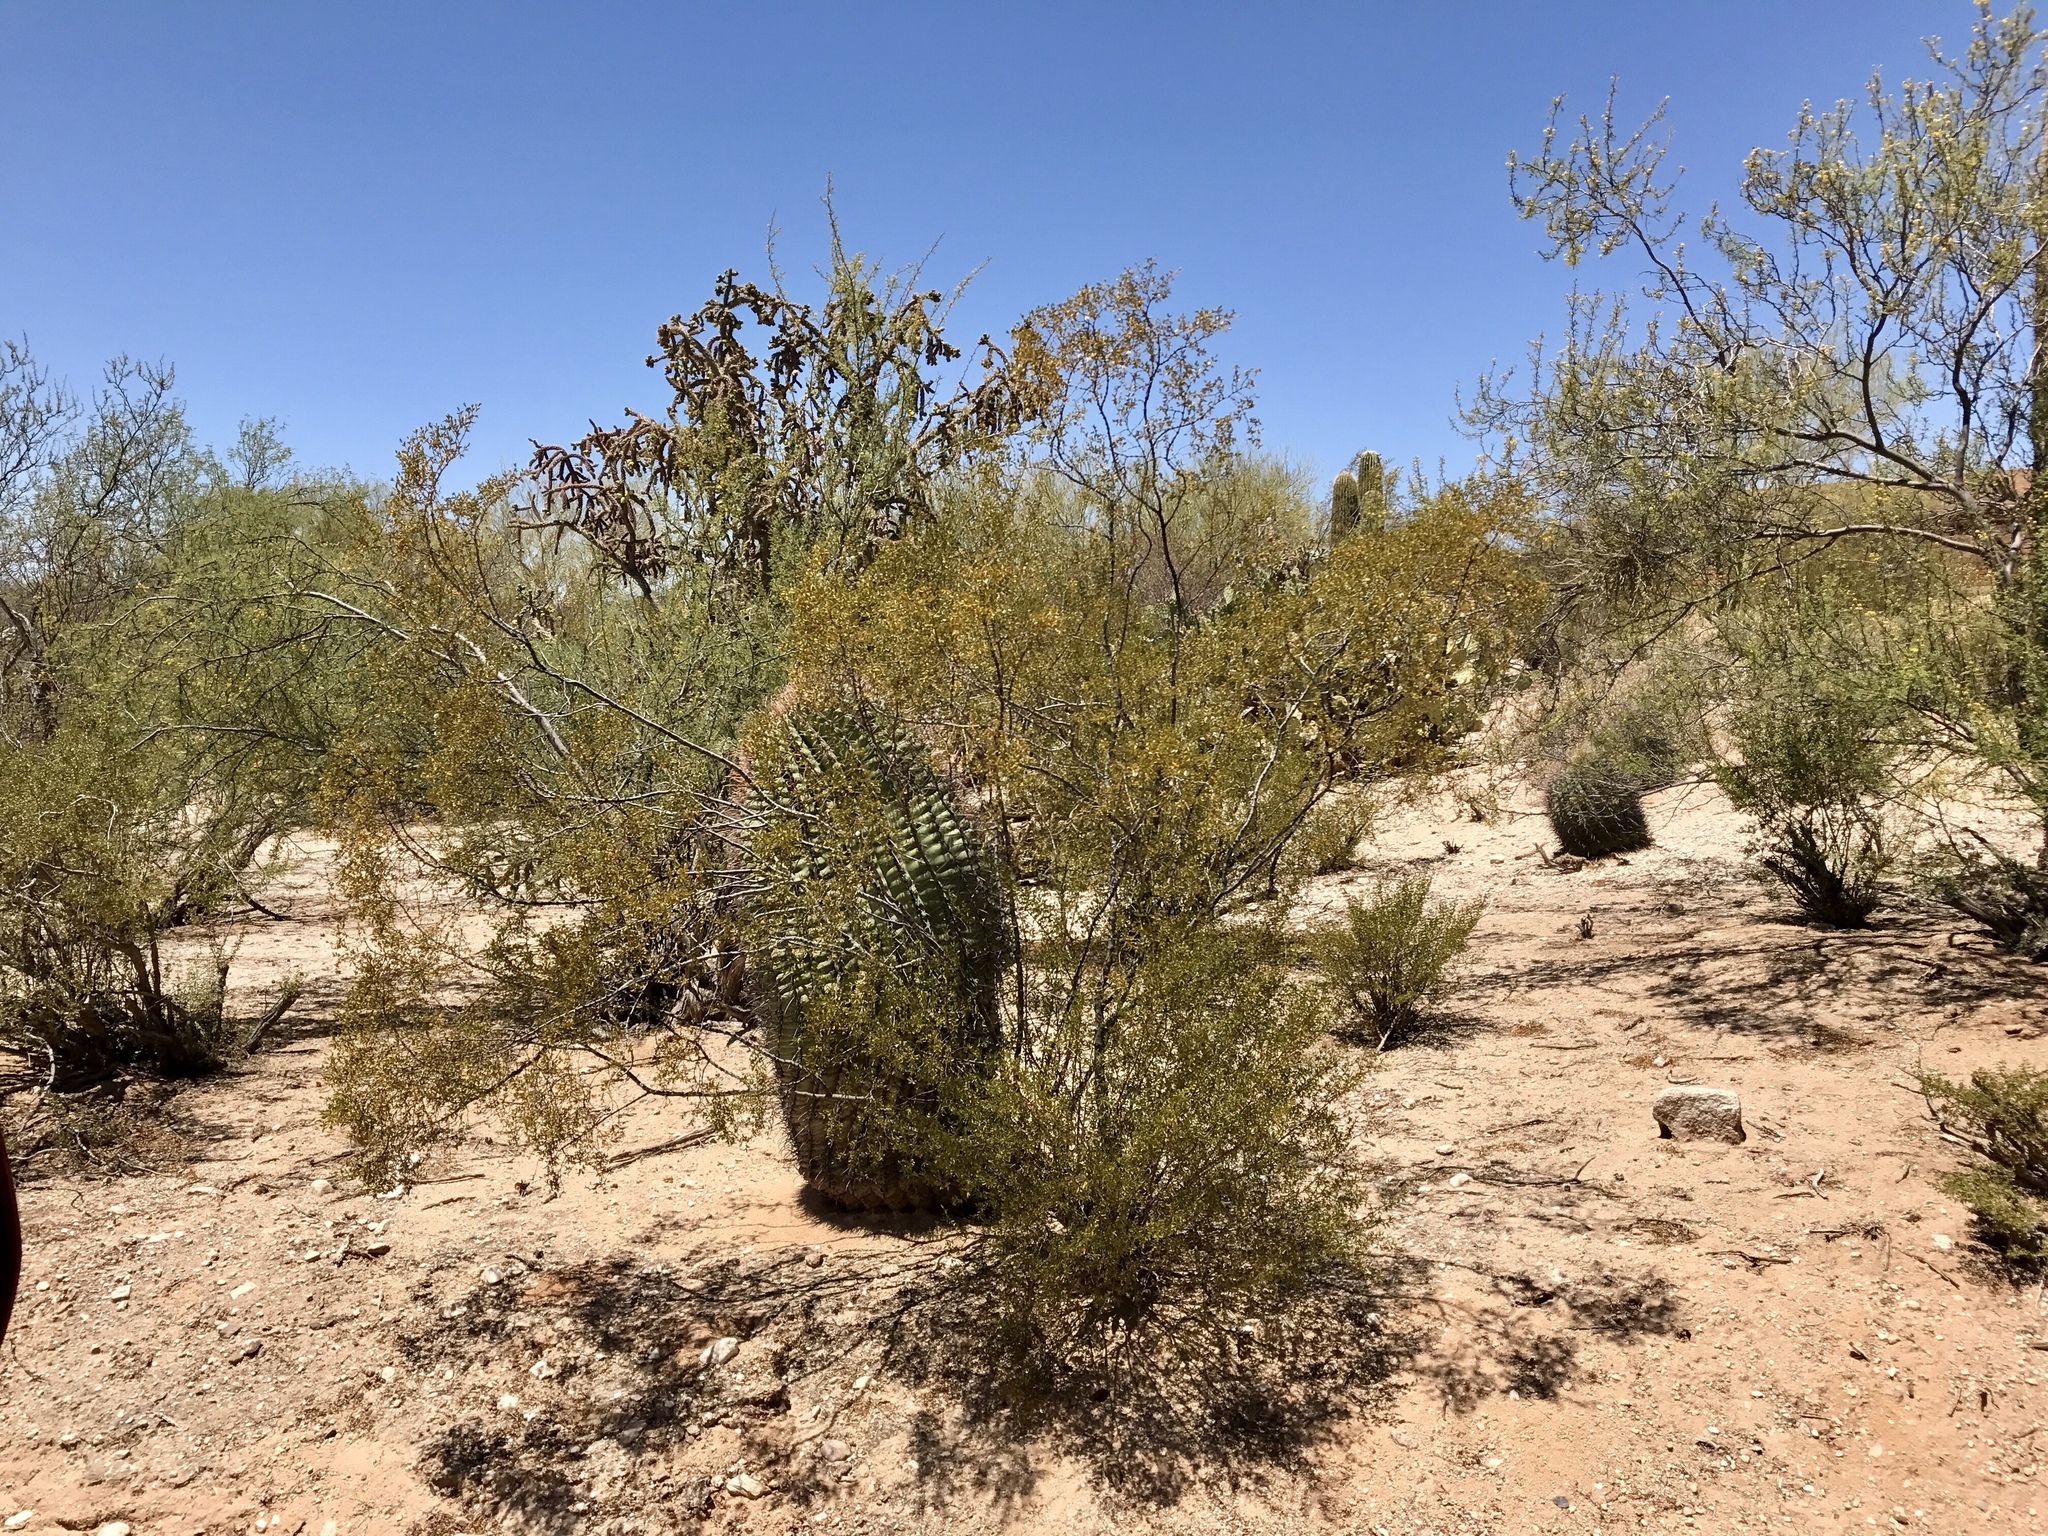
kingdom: Plantae
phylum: Tracheophyta
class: Magnoliopsida
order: Zygophyllales
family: Zygophyllaceae
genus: Larrea
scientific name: Larrea tridentata
